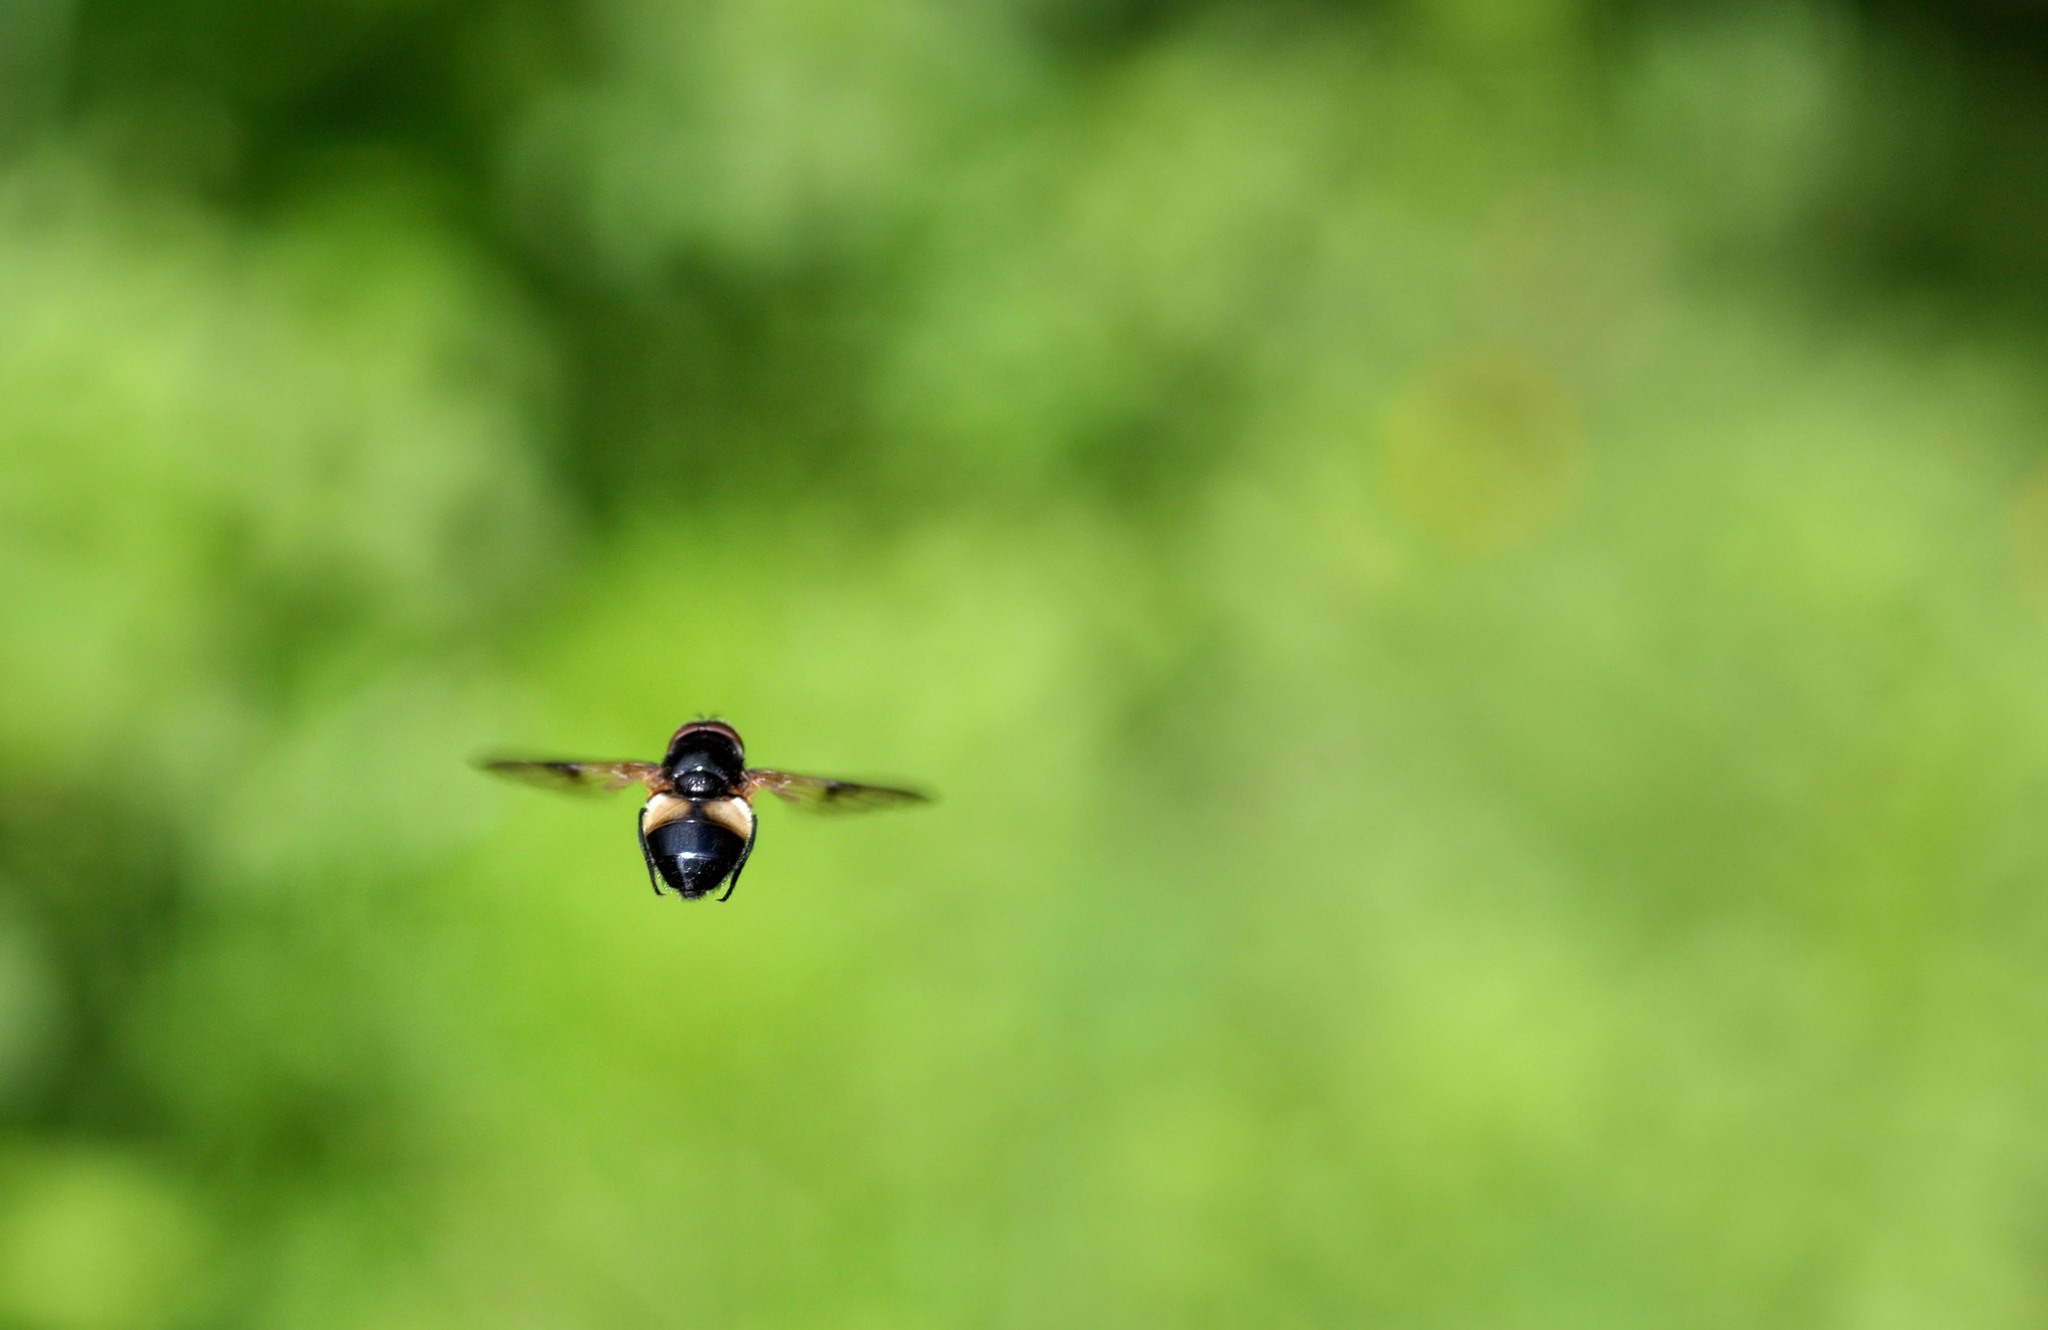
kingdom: Animalia
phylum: Arthropoda
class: Insecta
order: Diptera
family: Syrphidae
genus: Volucella
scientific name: Volucella pellucens
